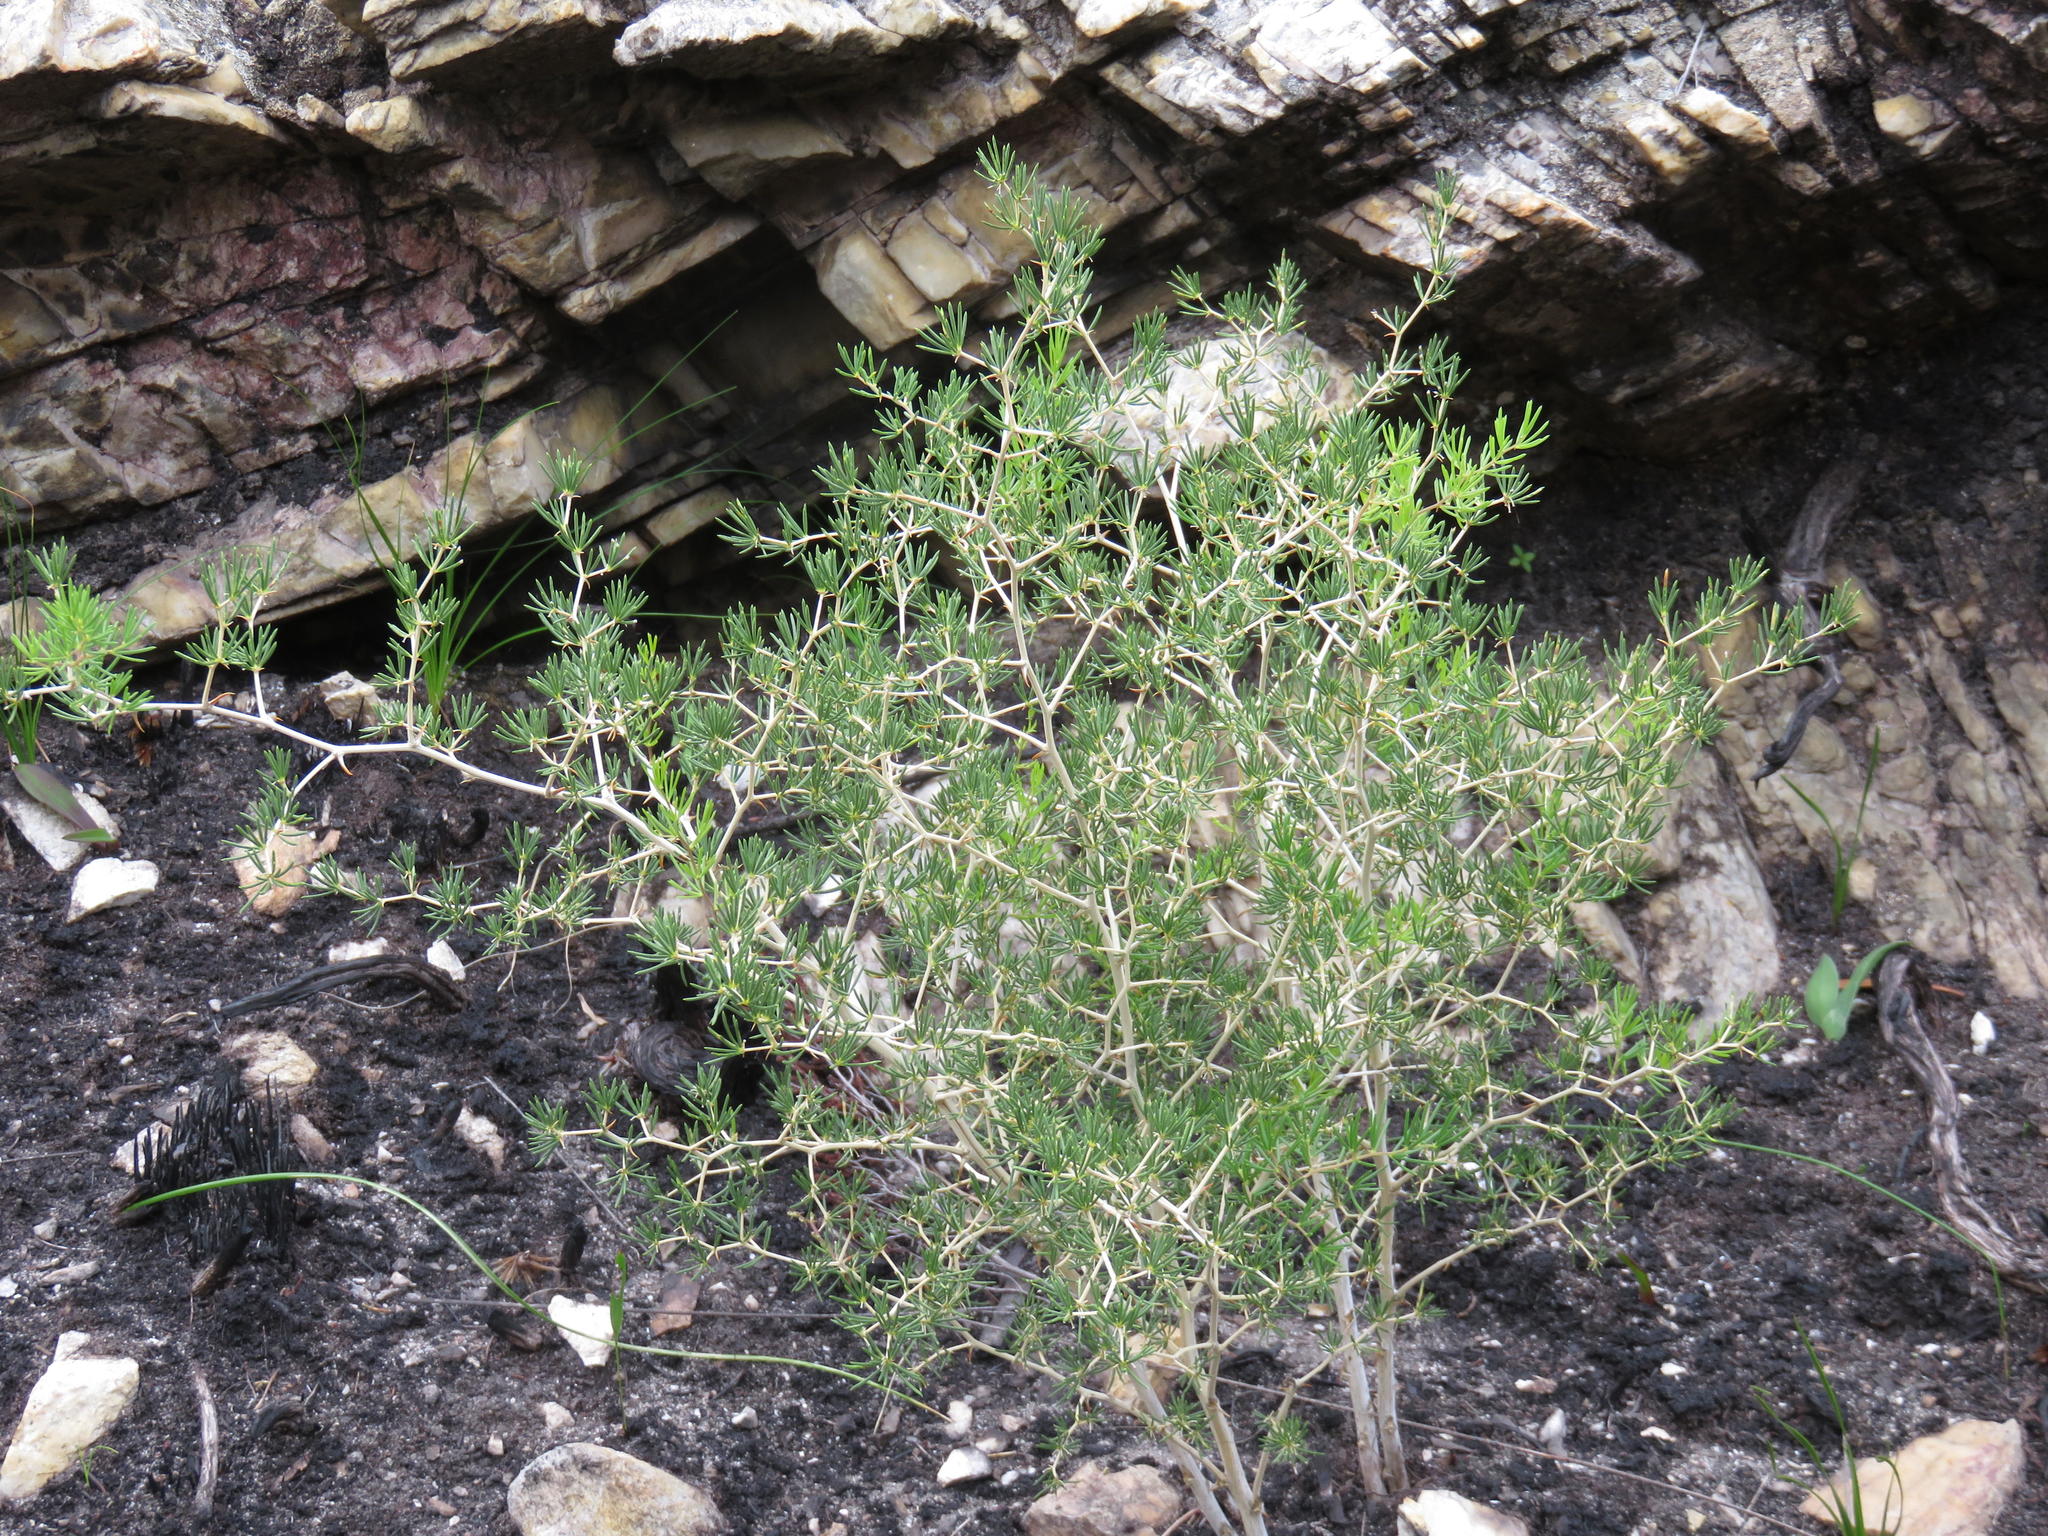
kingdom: Plantae
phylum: Tracheophyta
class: Liliopsida
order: Asparagales
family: Asparagaceae
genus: Asparagus
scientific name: Asparagus lignosus
